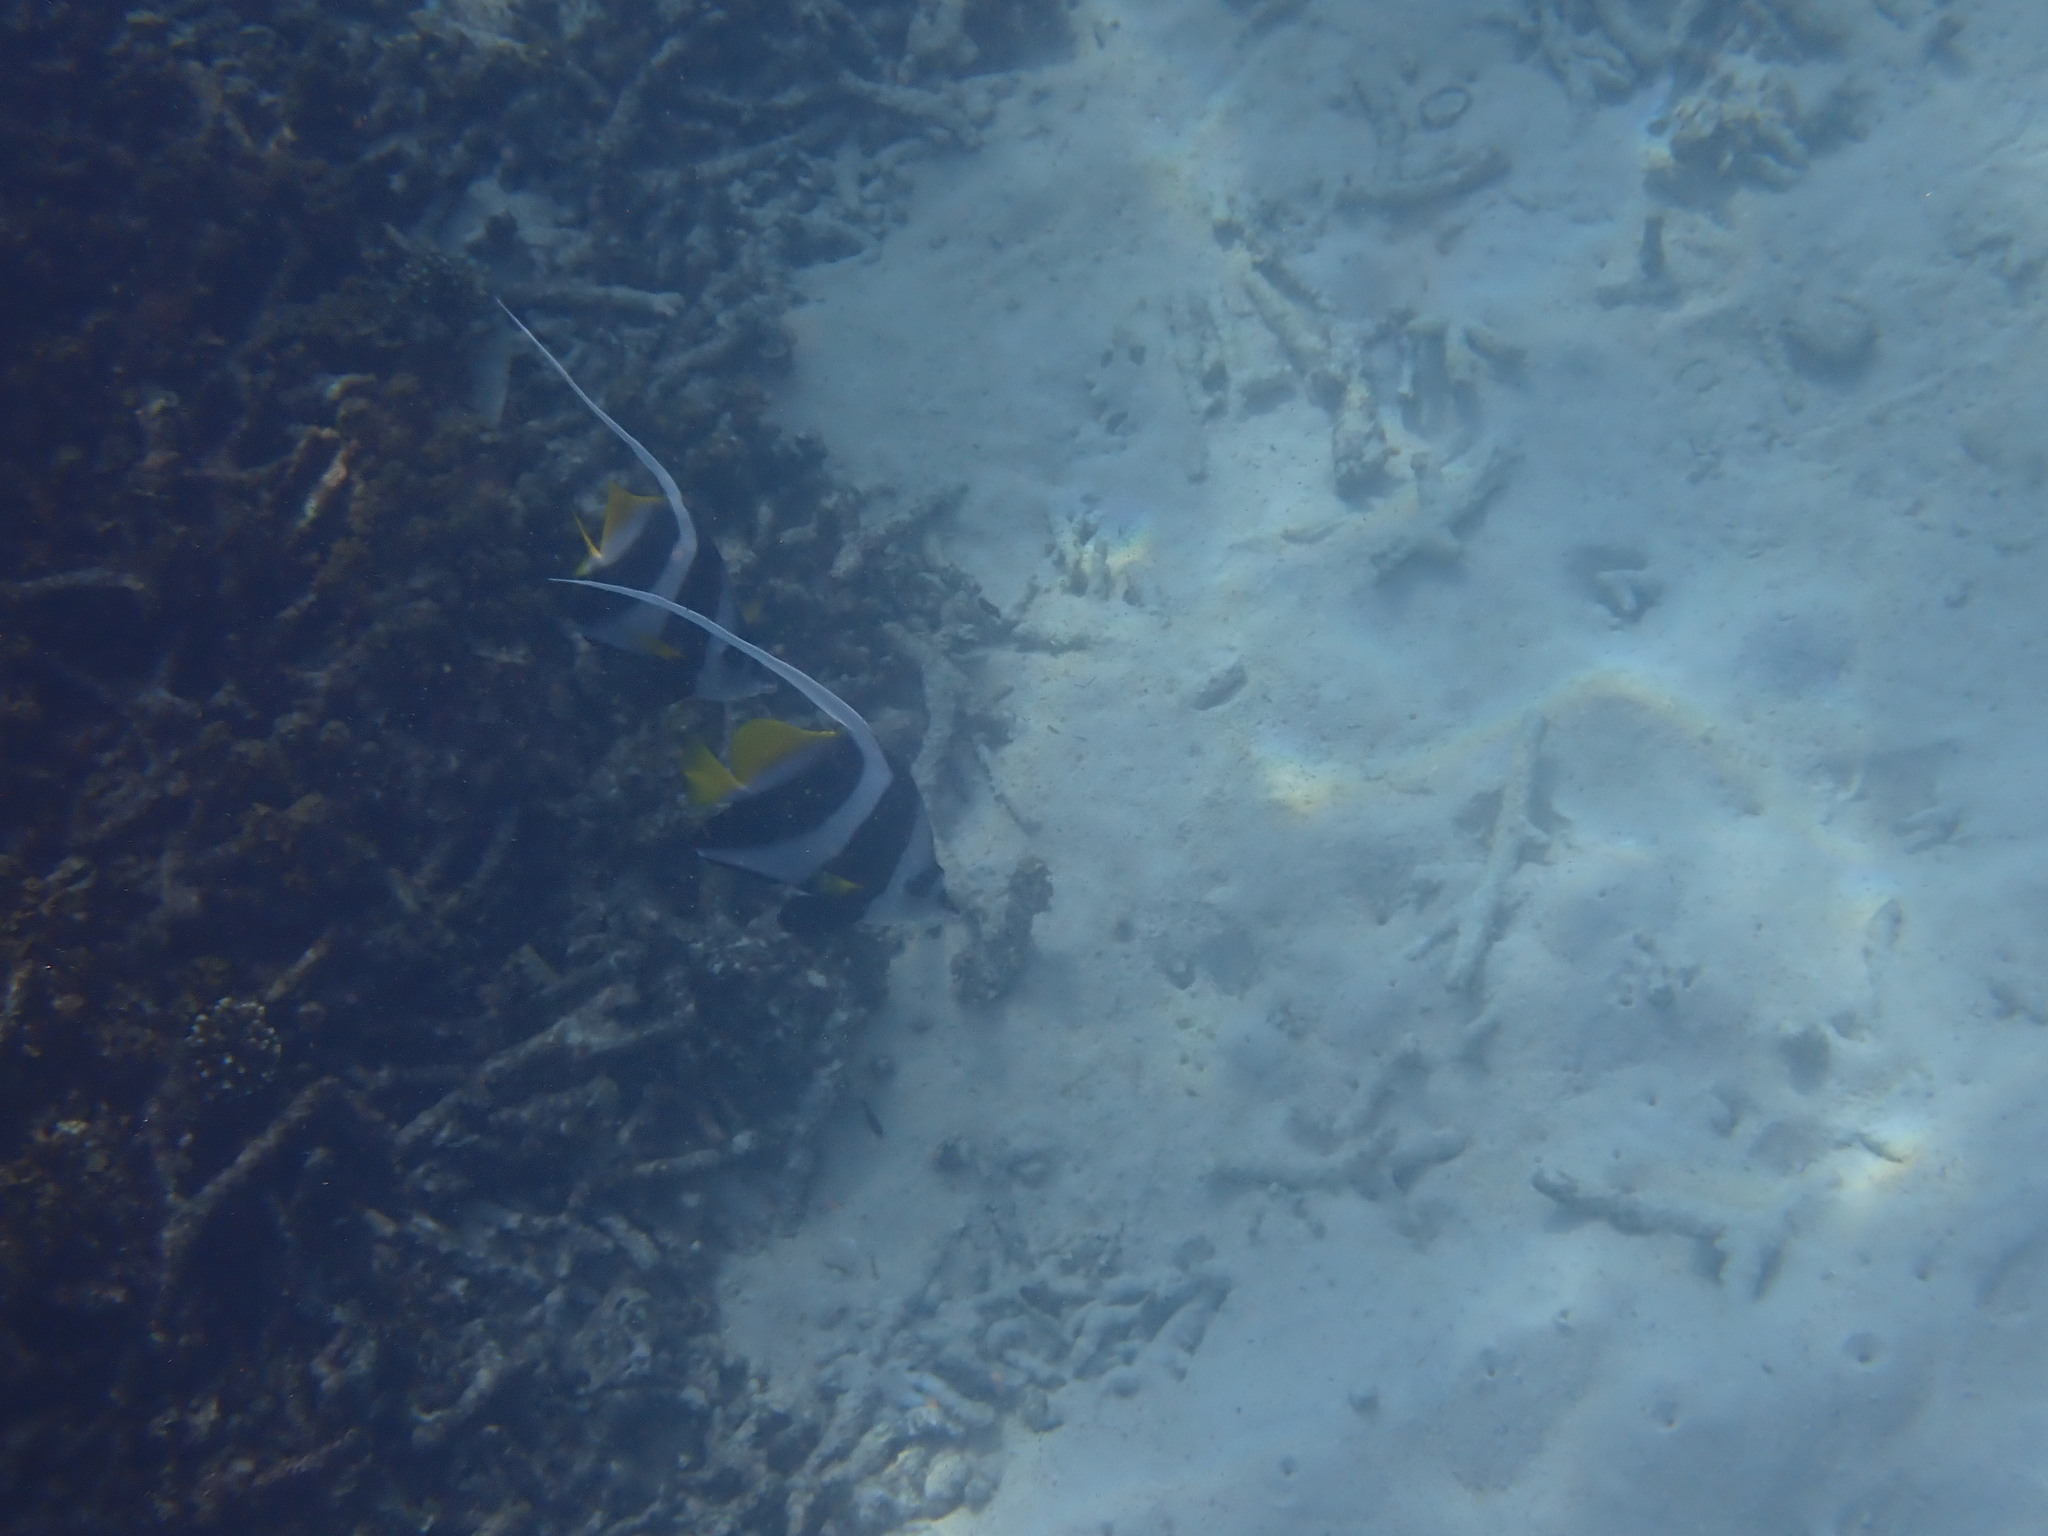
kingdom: Animalia
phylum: Chordata
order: Perciformes
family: Chaetodontidae
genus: Heniochus
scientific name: Heniochus acuminatus
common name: Pennant coralfish
